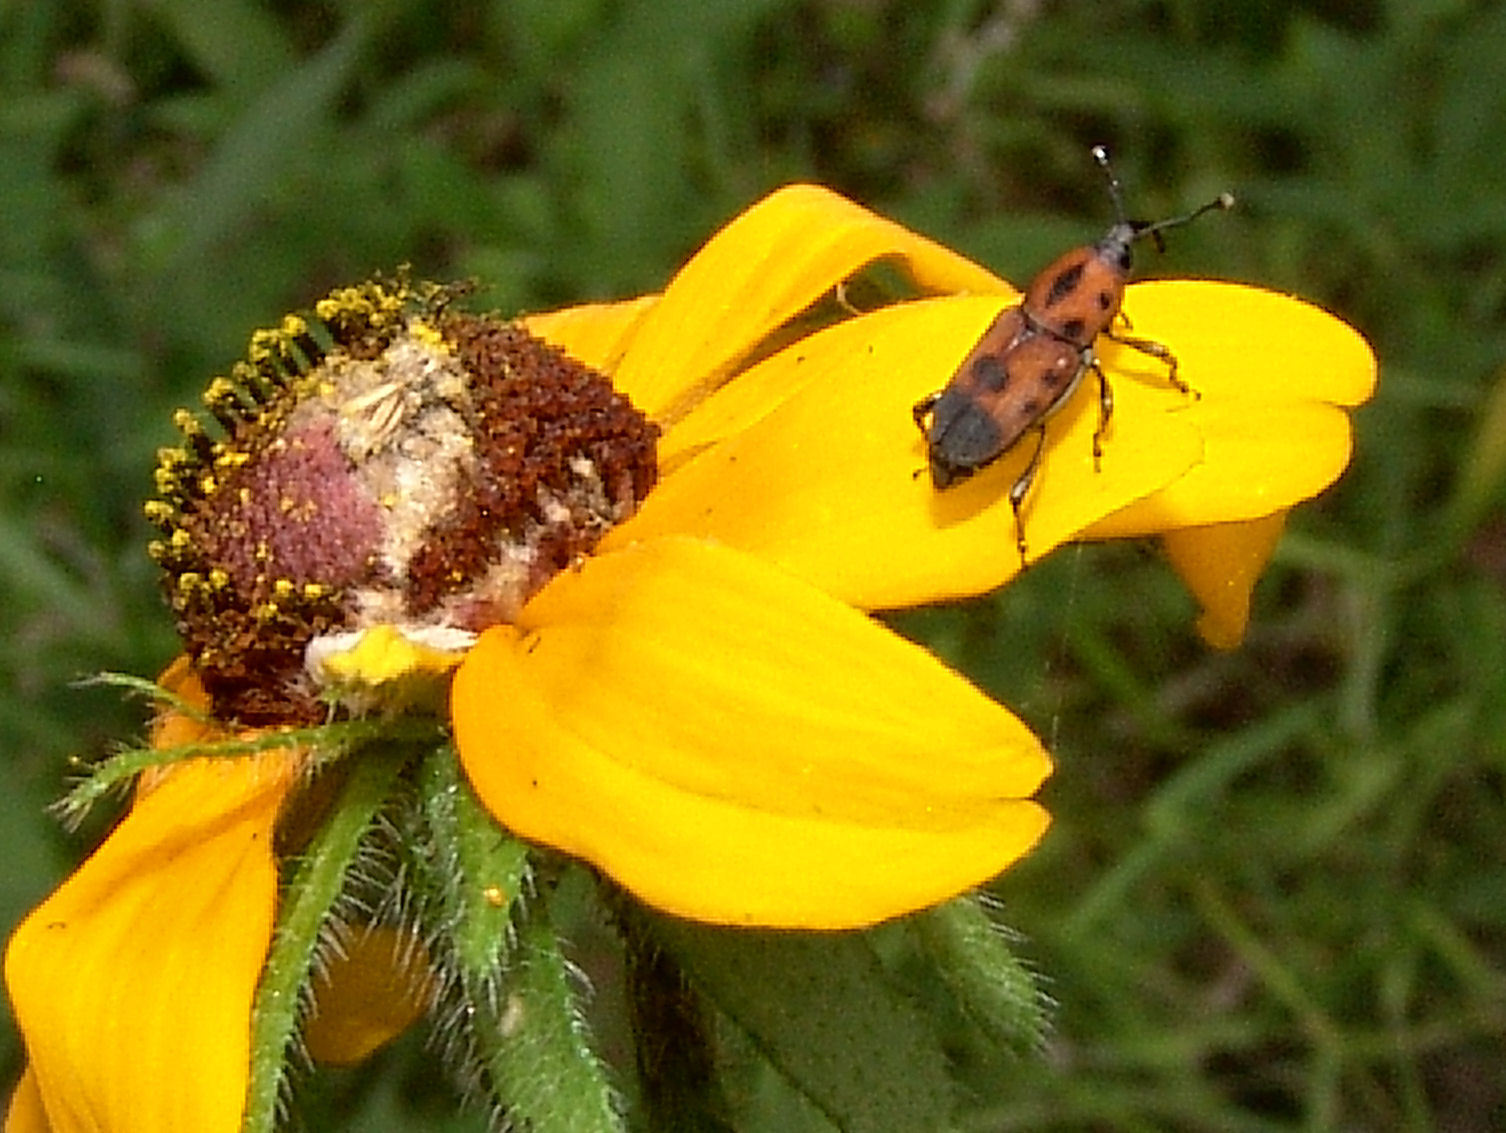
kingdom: Animalia
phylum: Arthropoda
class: Insecta
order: Coleoptera
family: Dryophthoridae
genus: Rhodobaenus
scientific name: Rhodobaenus quinquepunctatus
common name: Cocklebur weevil
